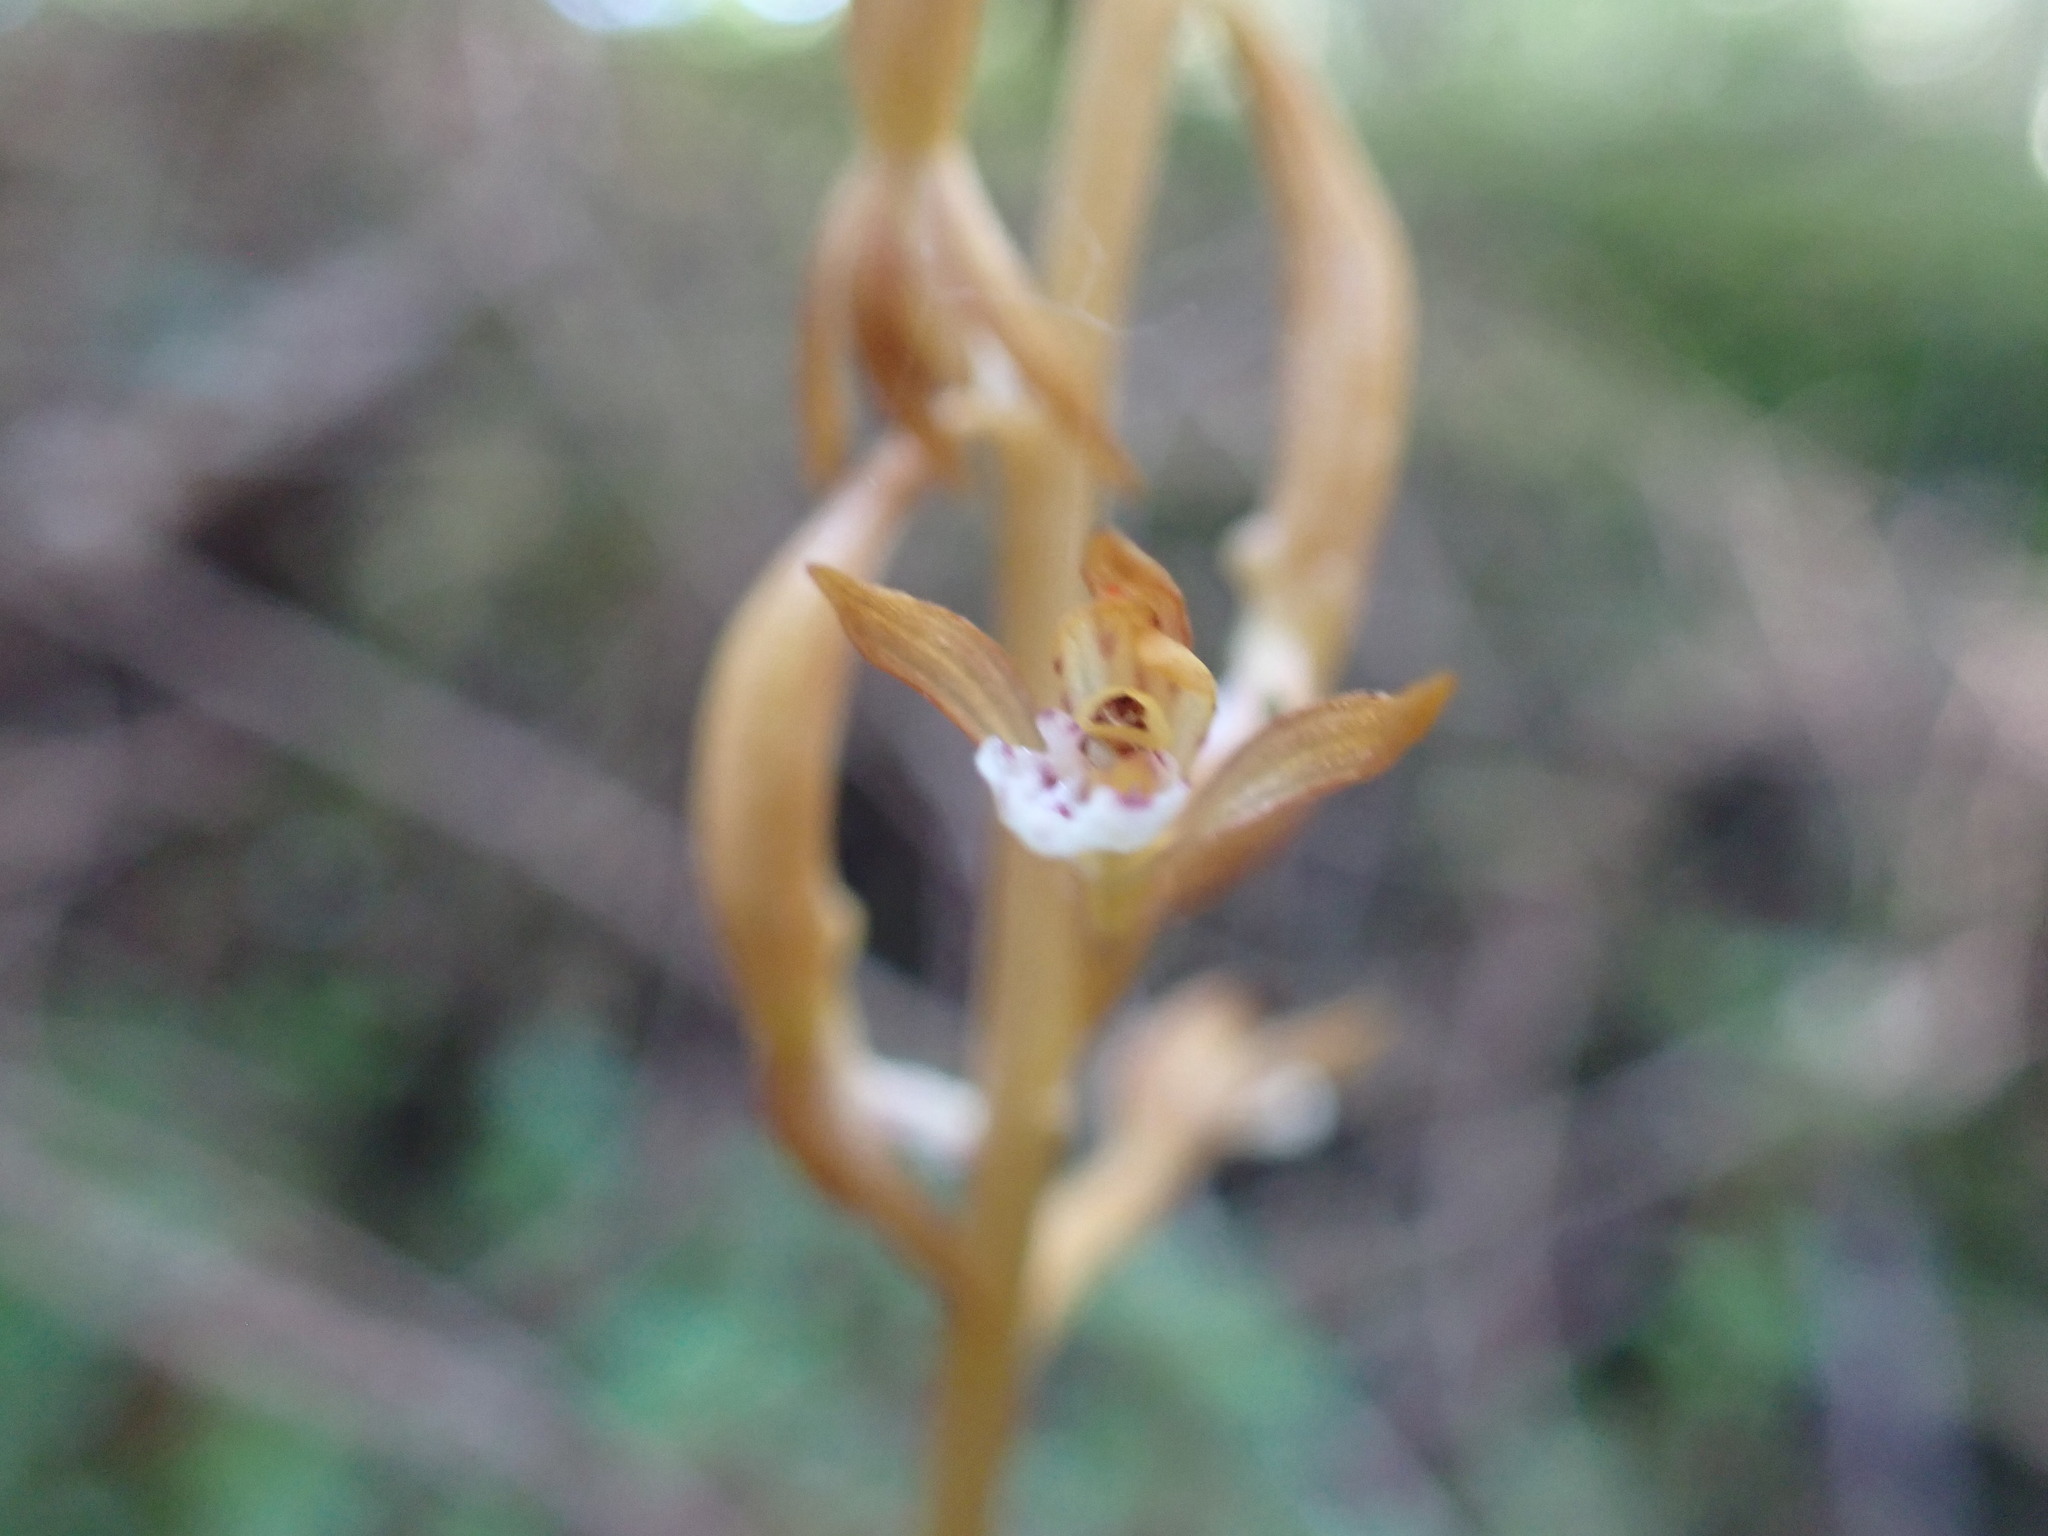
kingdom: Plantae
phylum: Tracheophyta
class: Liliopsida
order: Asparagales
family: Orchidaceae
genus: Corallorhiza
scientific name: Corallorhiza maculata
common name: Spotted coralroot
